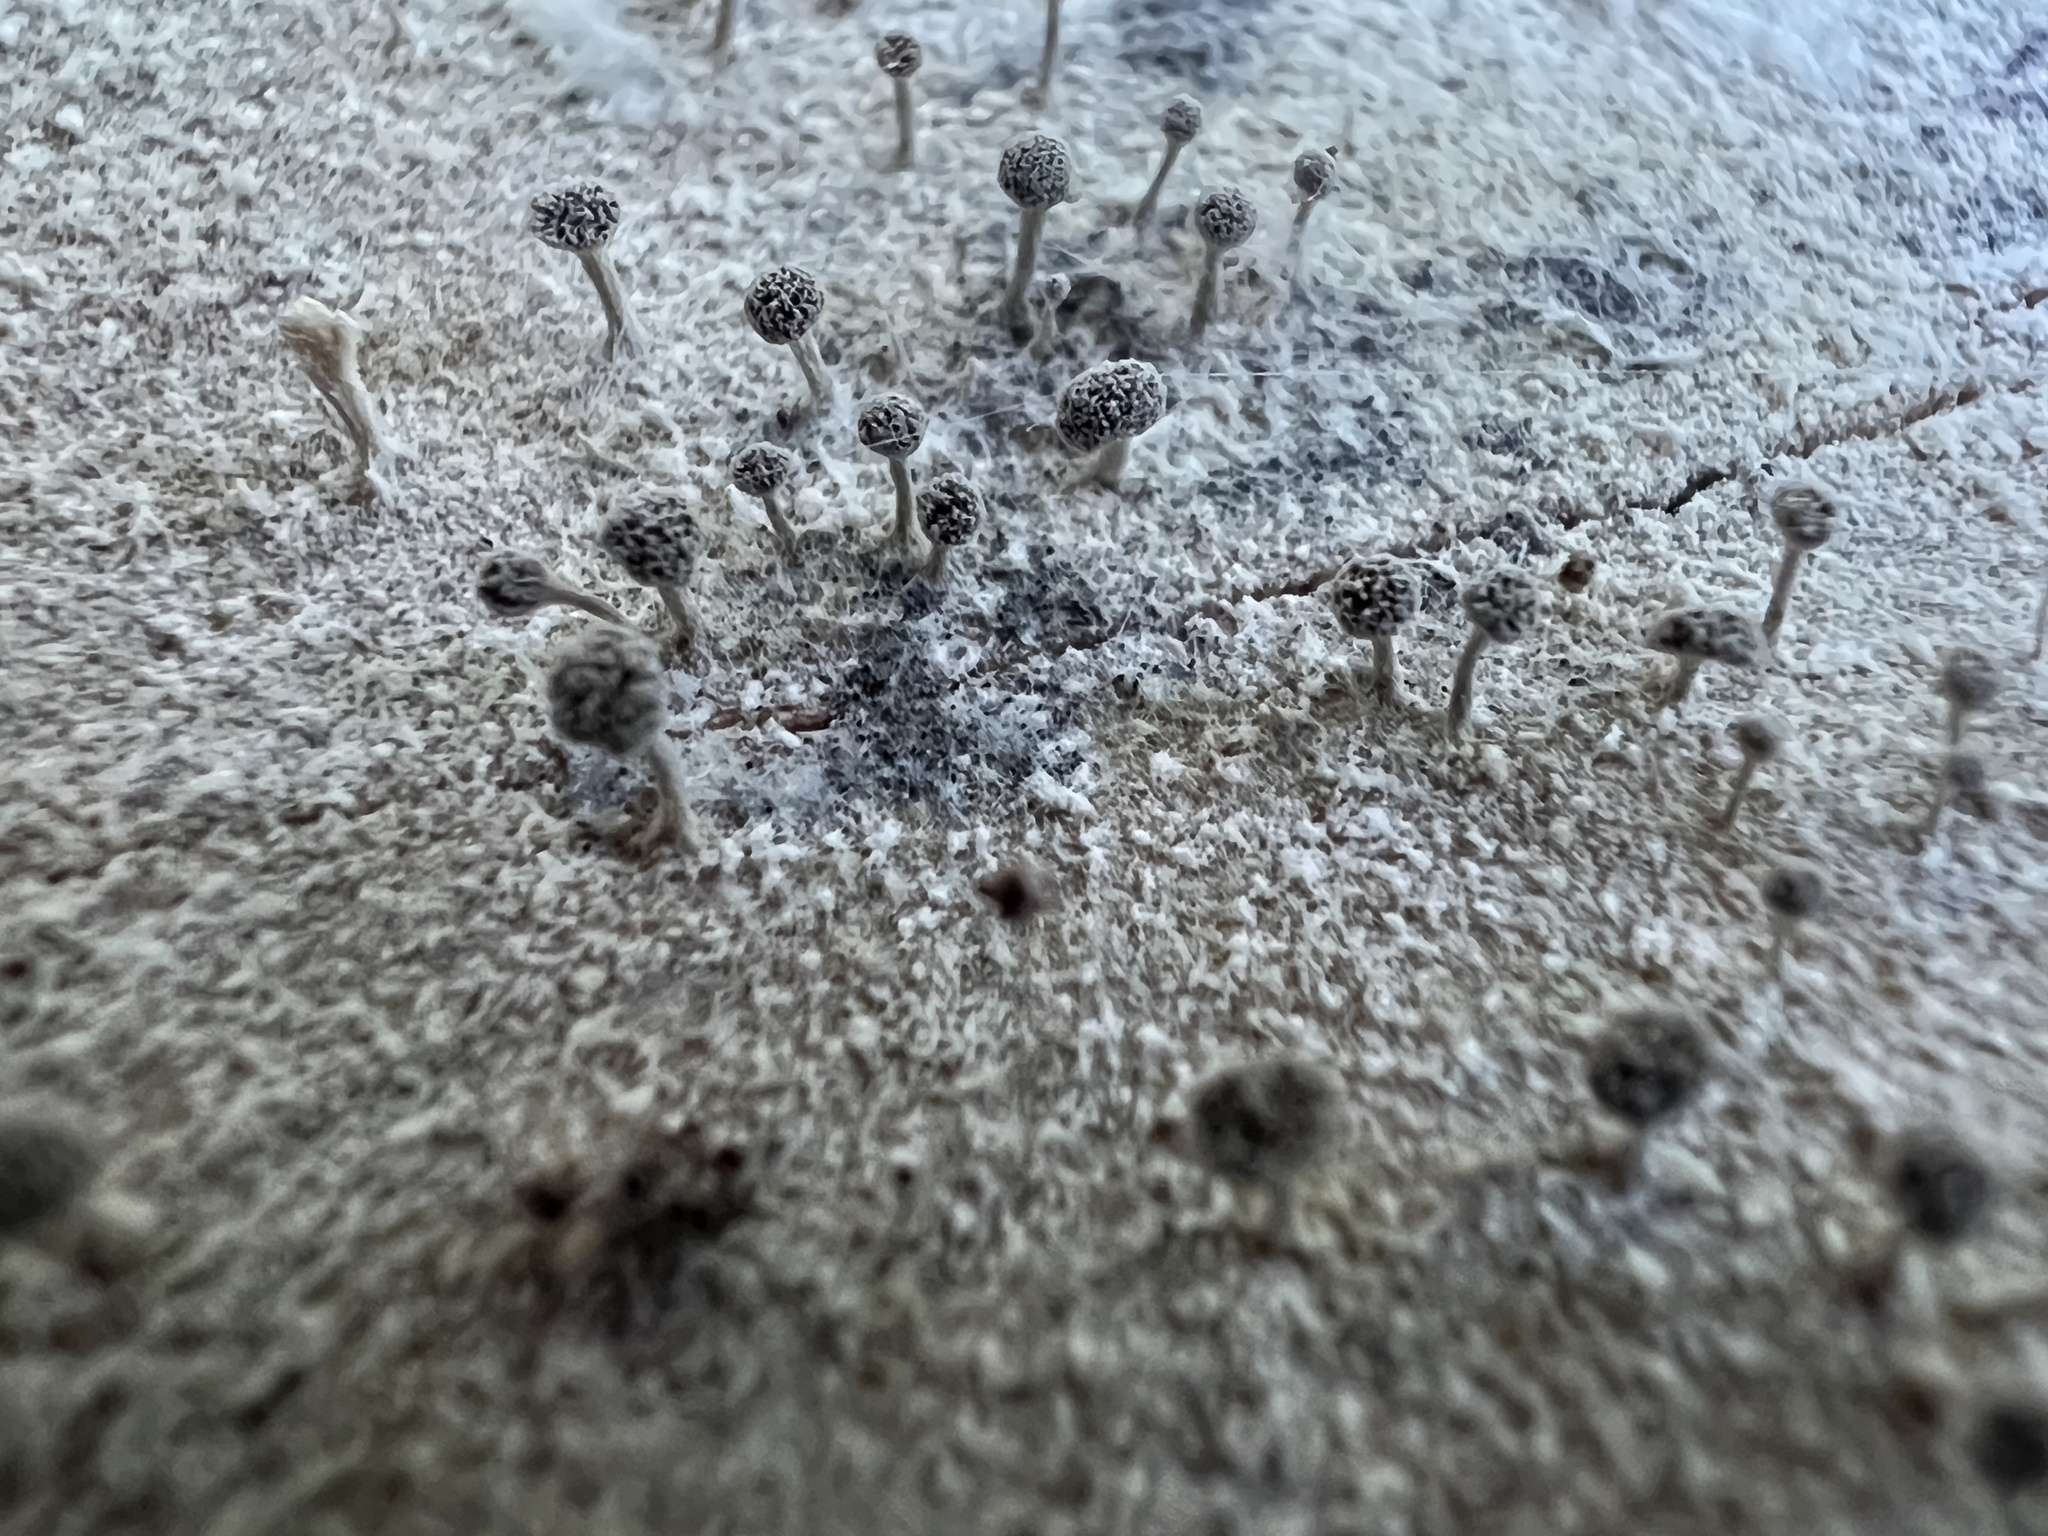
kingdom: Fungi
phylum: Basidiomycota
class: Atractiellomycetes
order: Atractiellales
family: Phleogenaceae
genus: Phleogena
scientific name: Phleogena faginea
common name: Fenugreek stalkball
